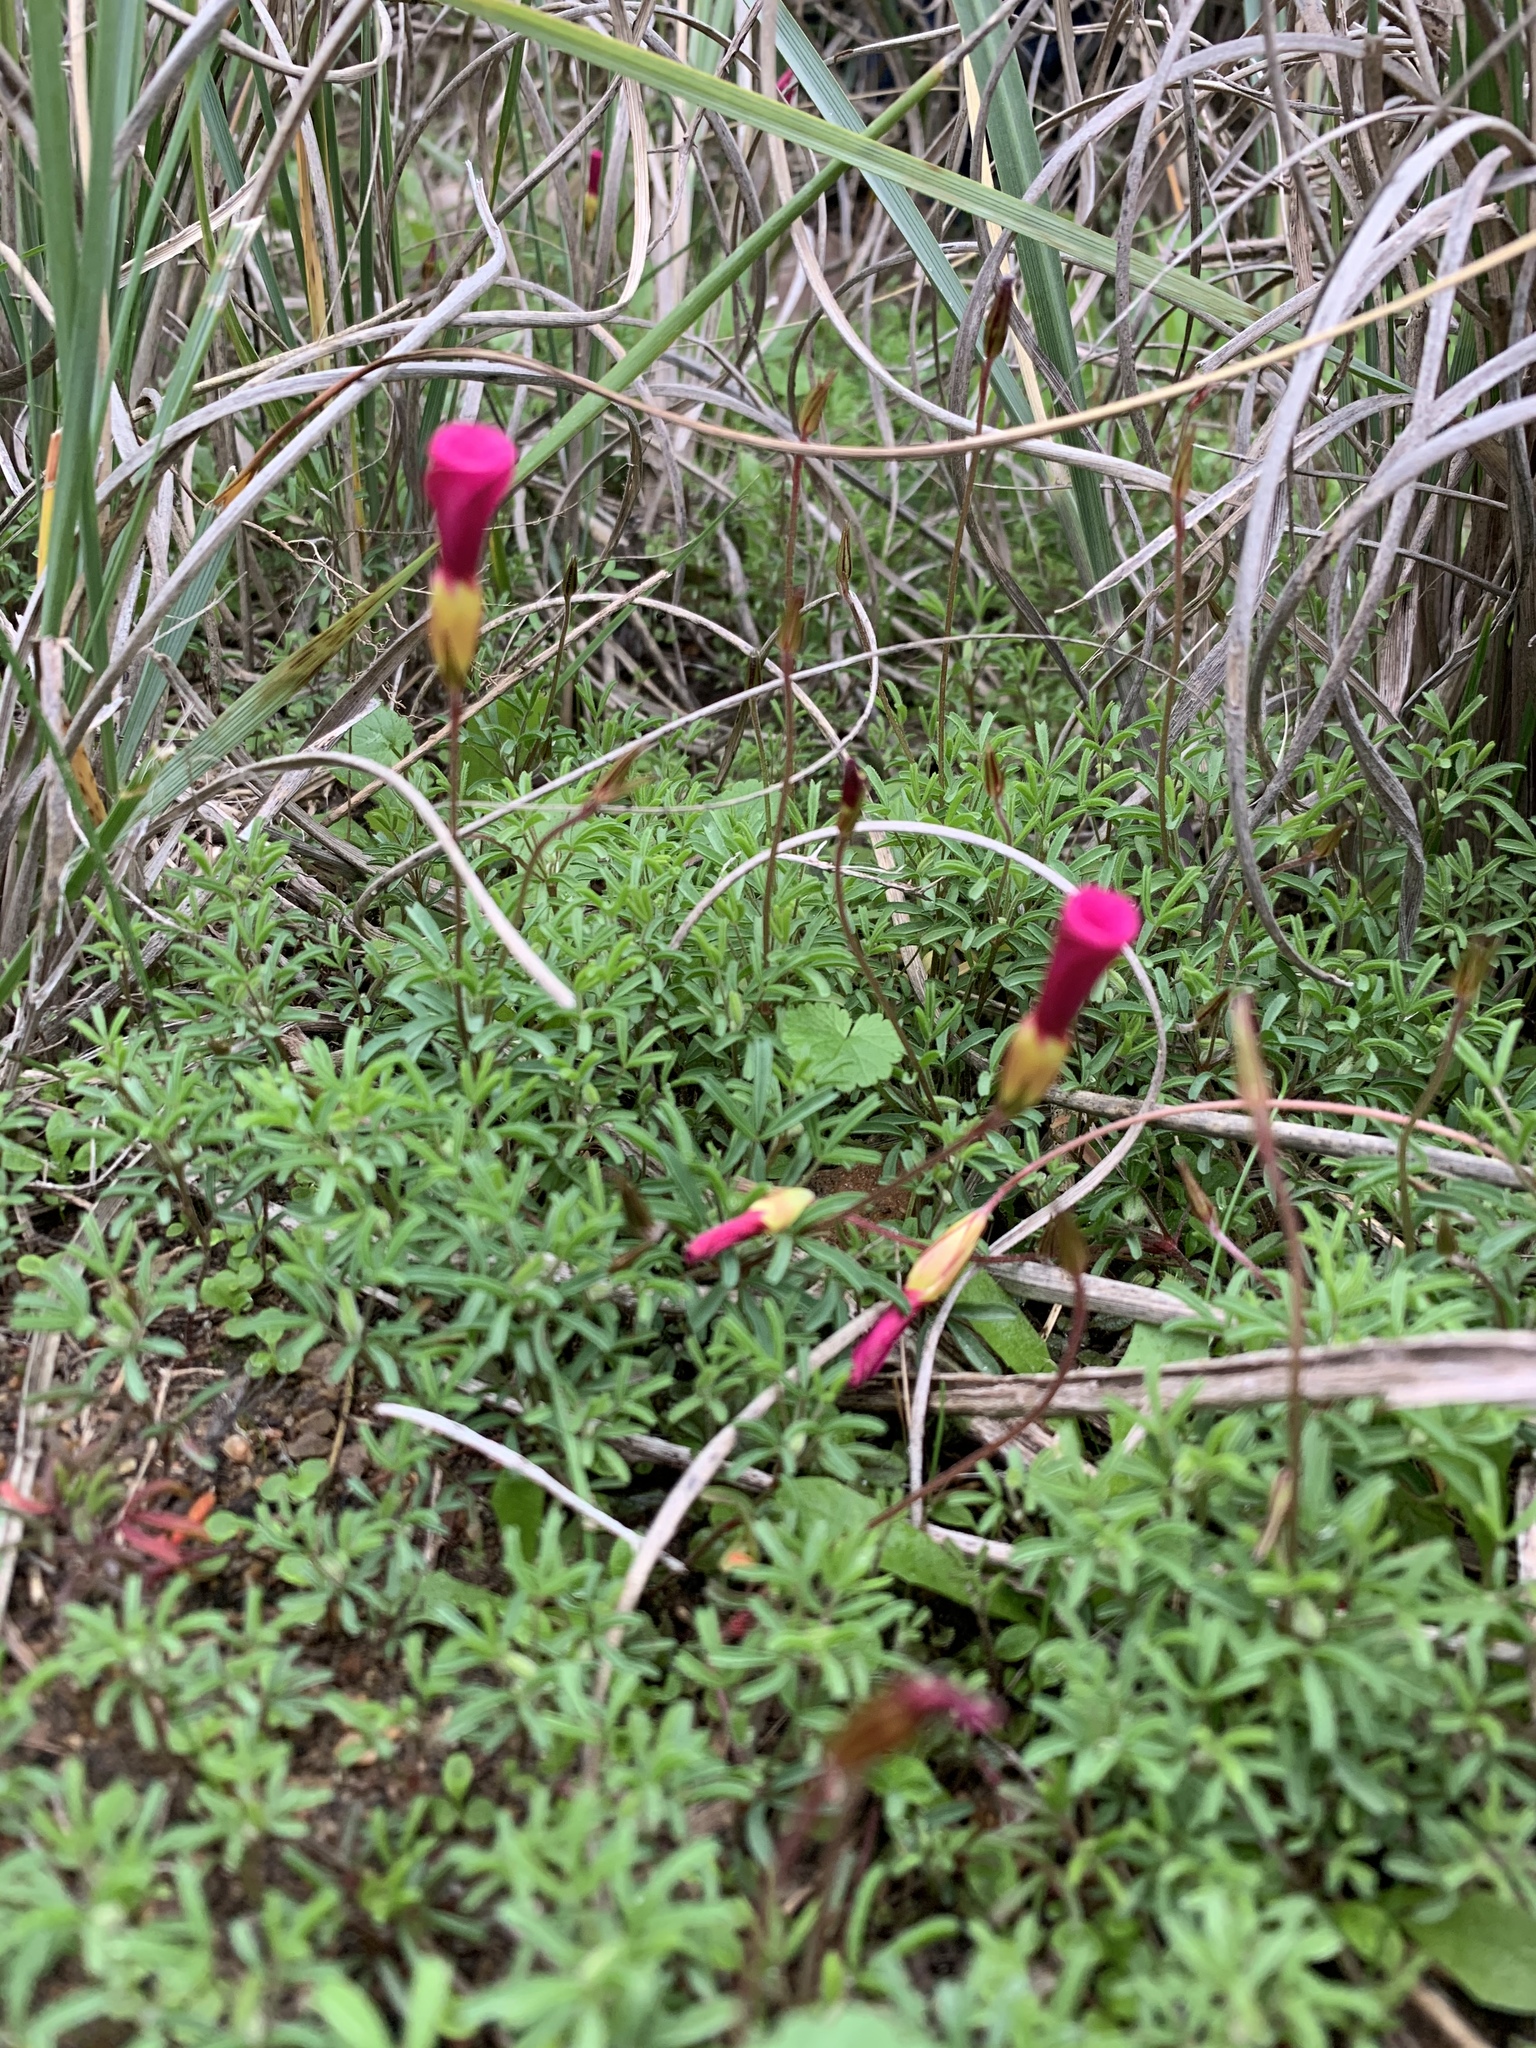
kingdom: Plantae
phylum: Tracheophyta
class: Magnoliopsida
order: Oxalidales
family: Oxalidaceae
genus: Oxalis
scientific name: Oxalis glabra
